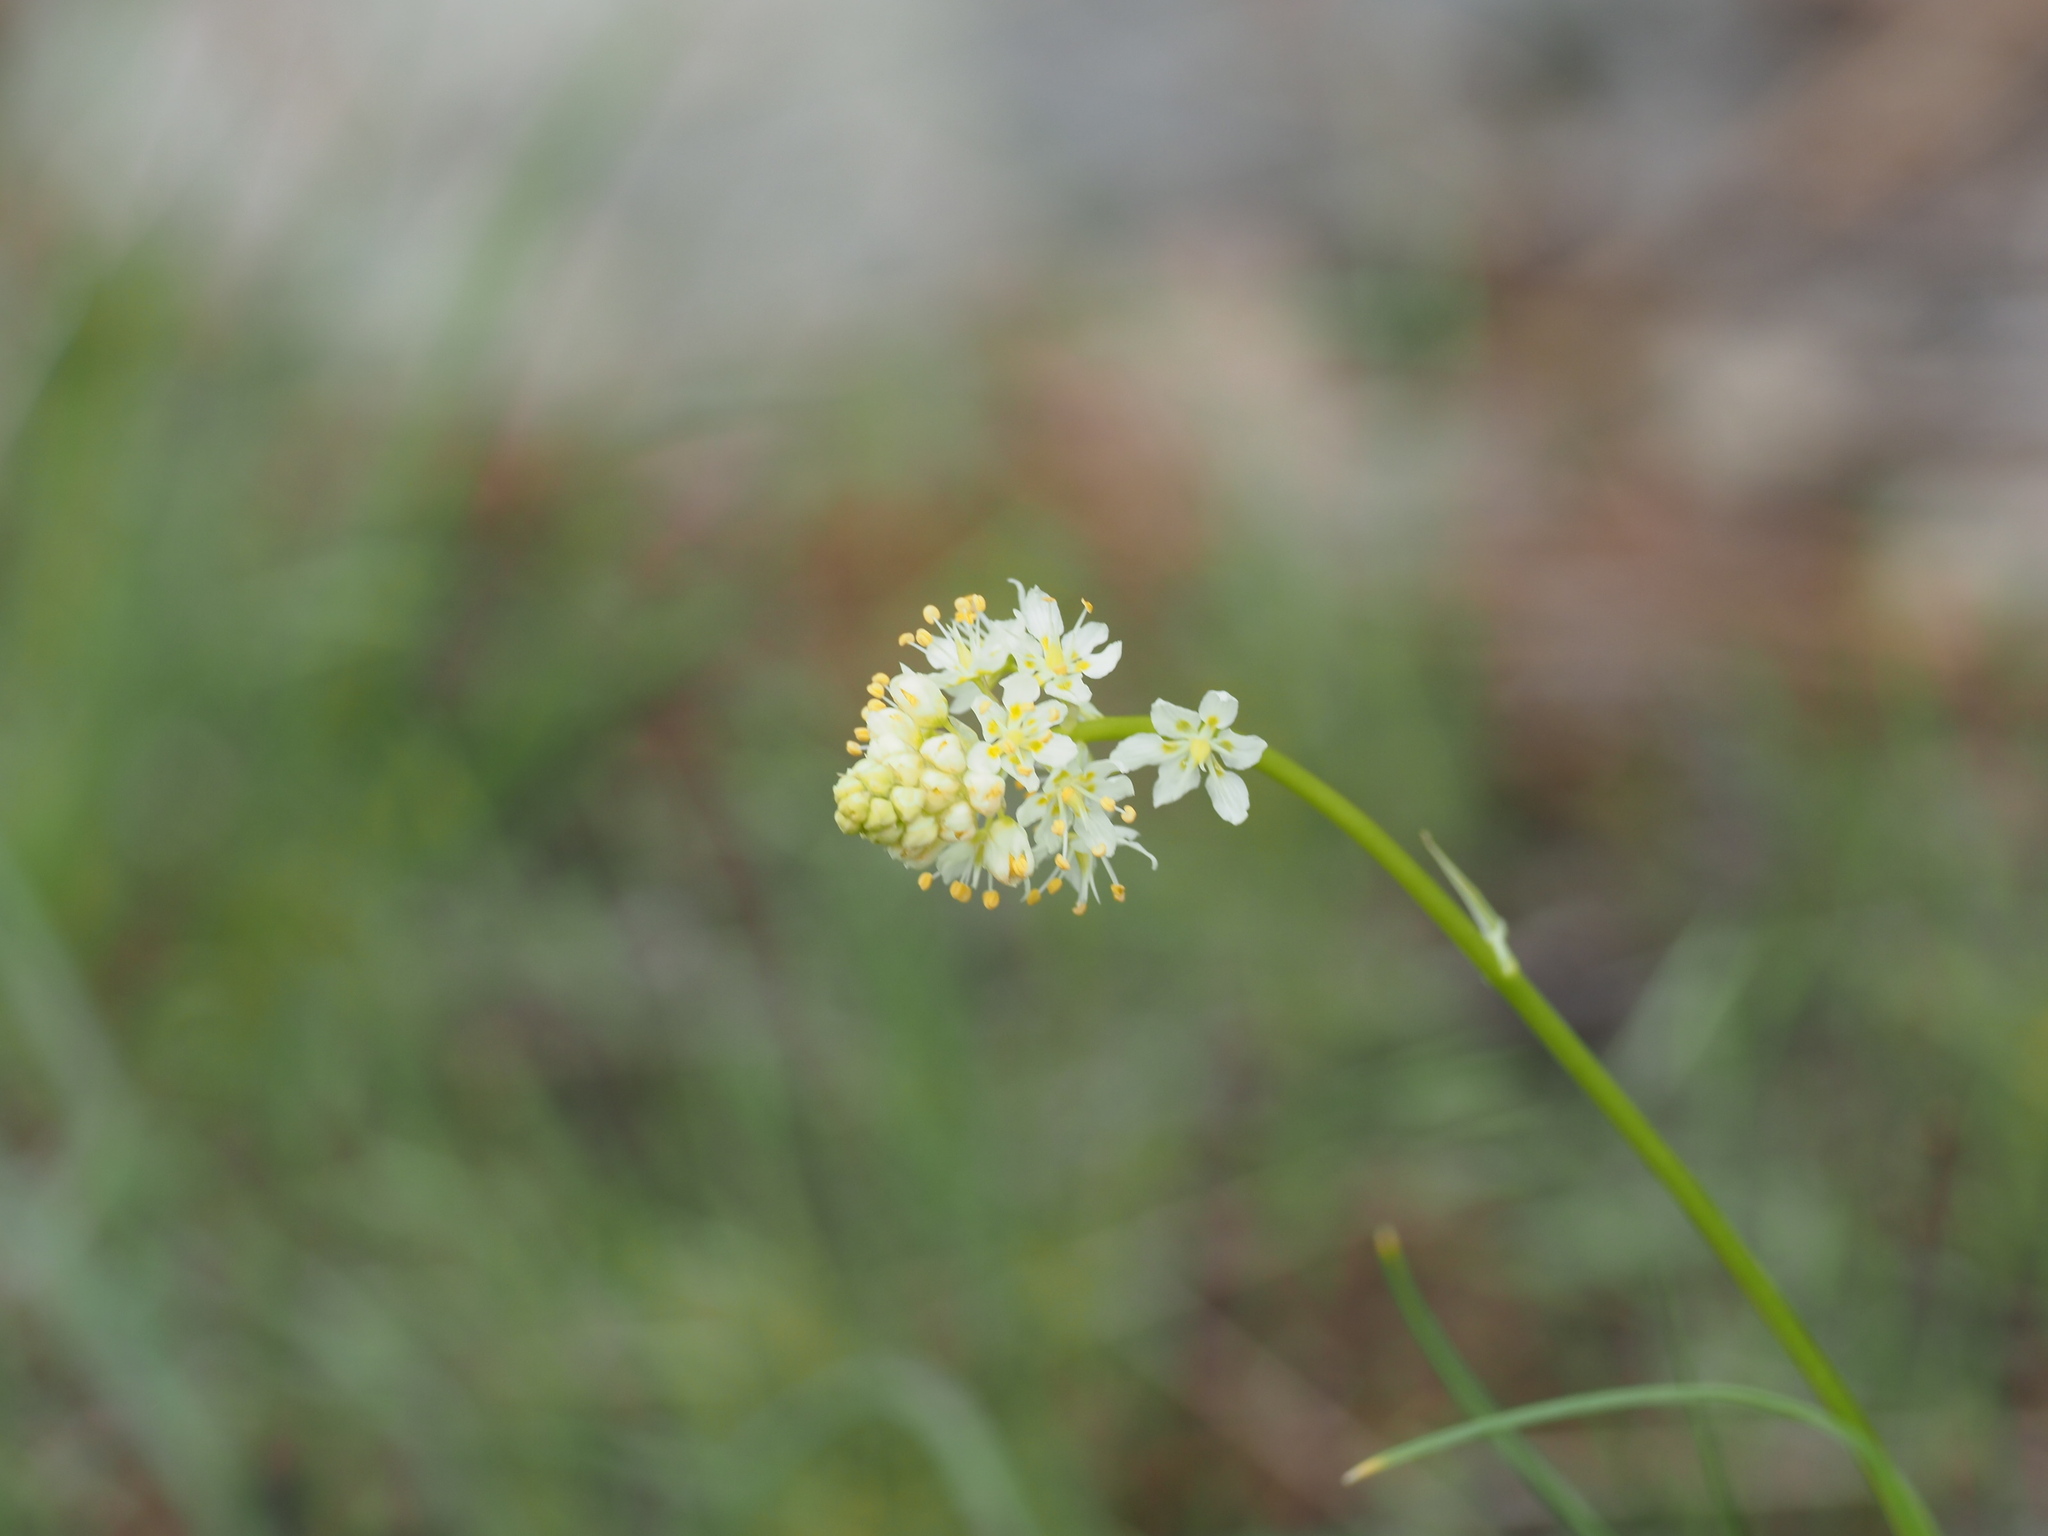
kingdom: Plantae
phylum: Tracheophyta
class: Liliopsida
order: Liliales
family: Melanthiaceae
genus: Toxicoscordion
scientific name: Toxicoscordion venenosum
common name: Meadow death camas
